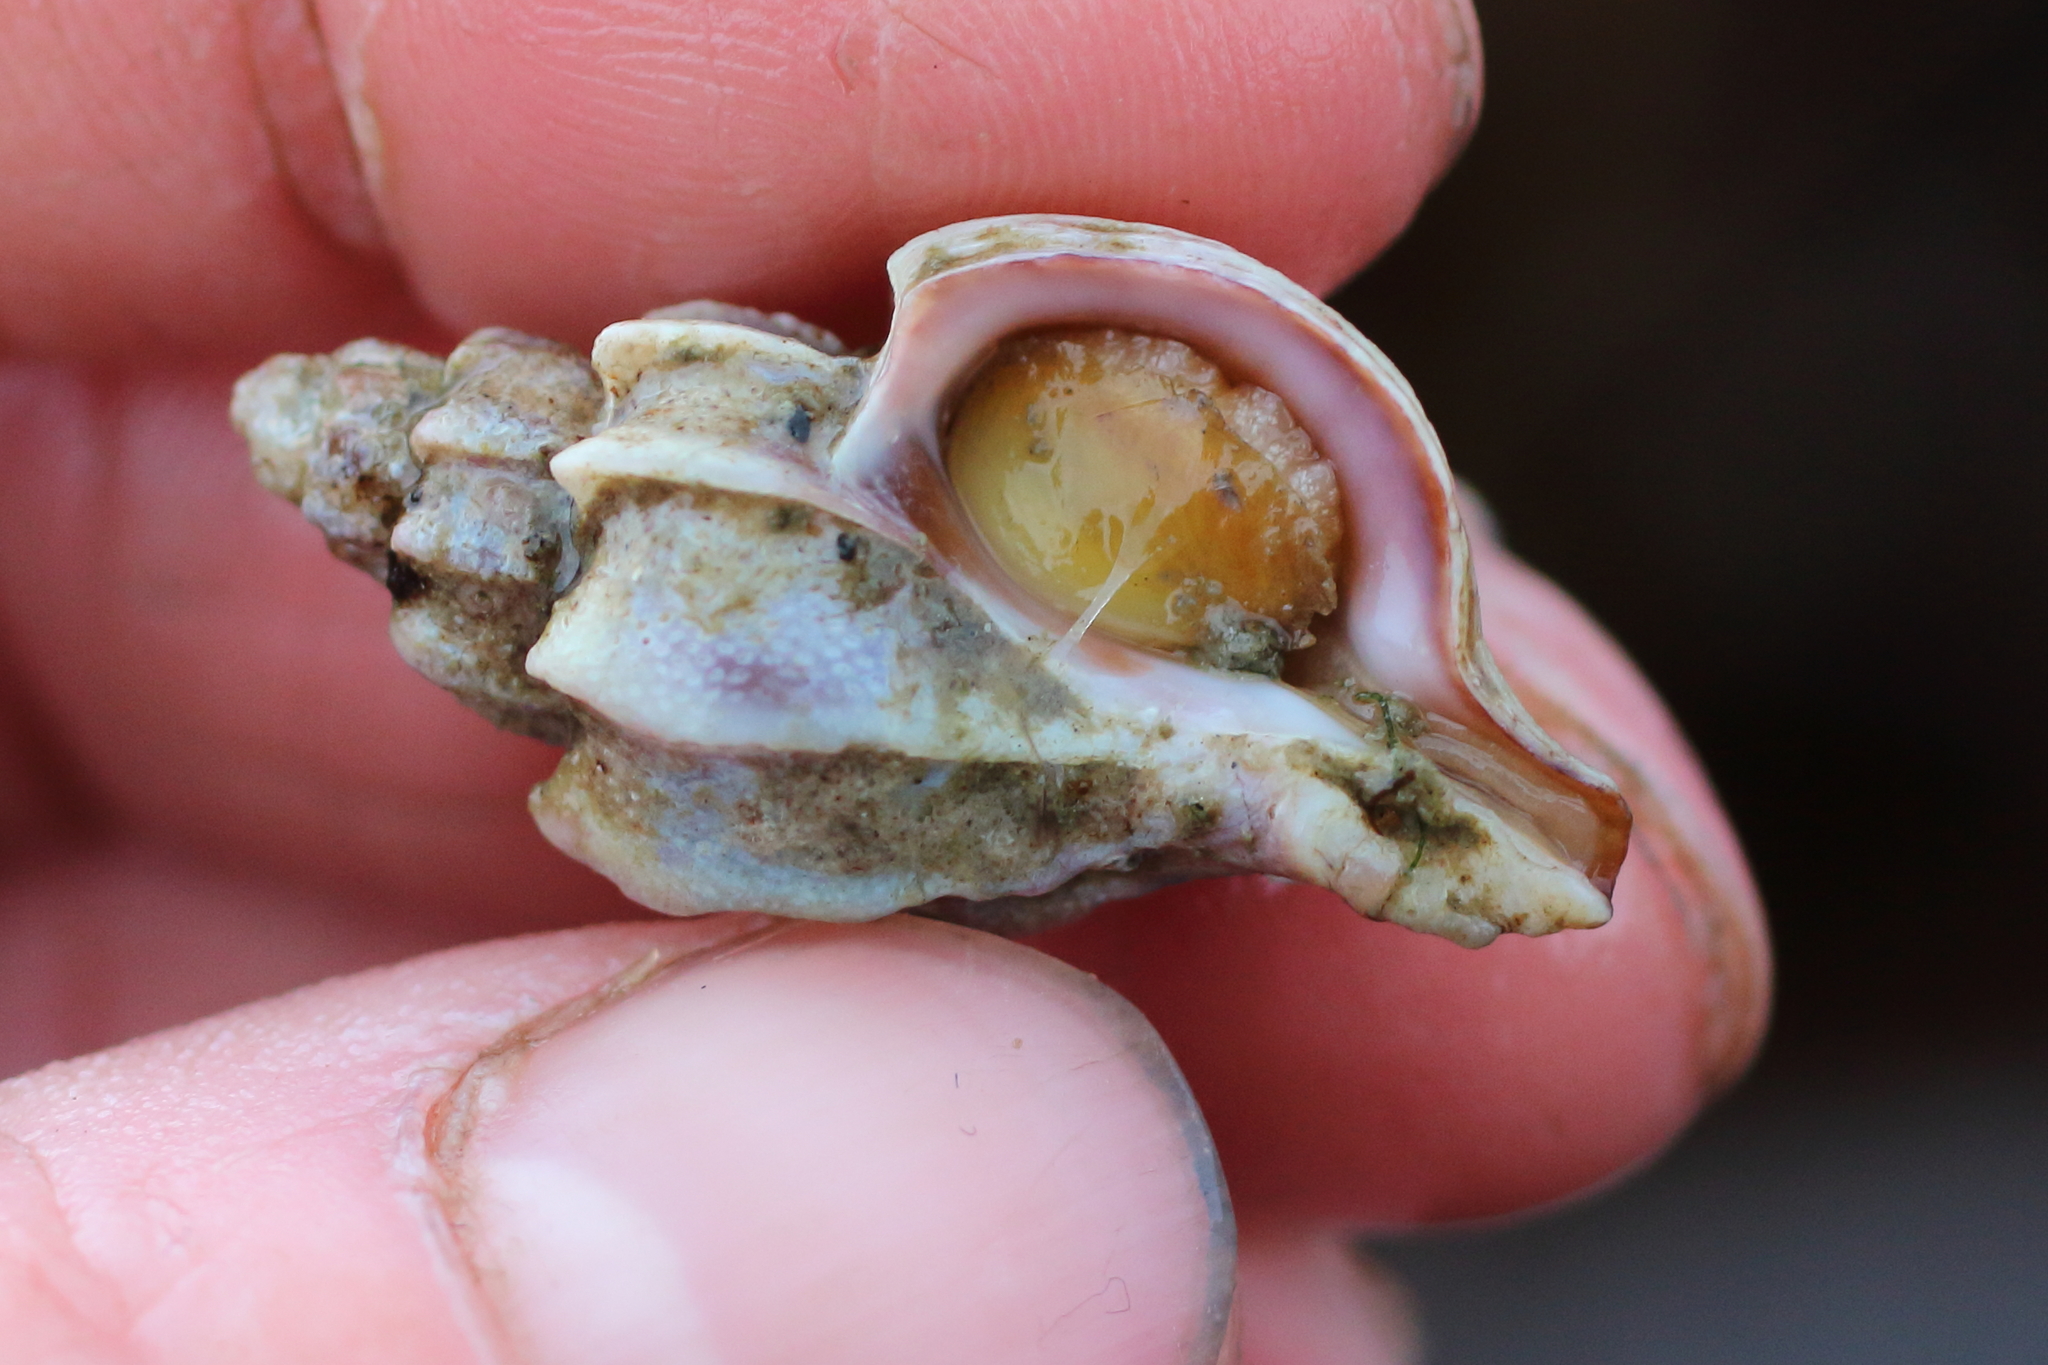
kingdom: Animalia
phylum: Mollusca
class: Gastropoda
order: Neogastropoda
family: Muricidae
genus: Scabrotrophon
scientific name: Scabrotrophon stuarti
